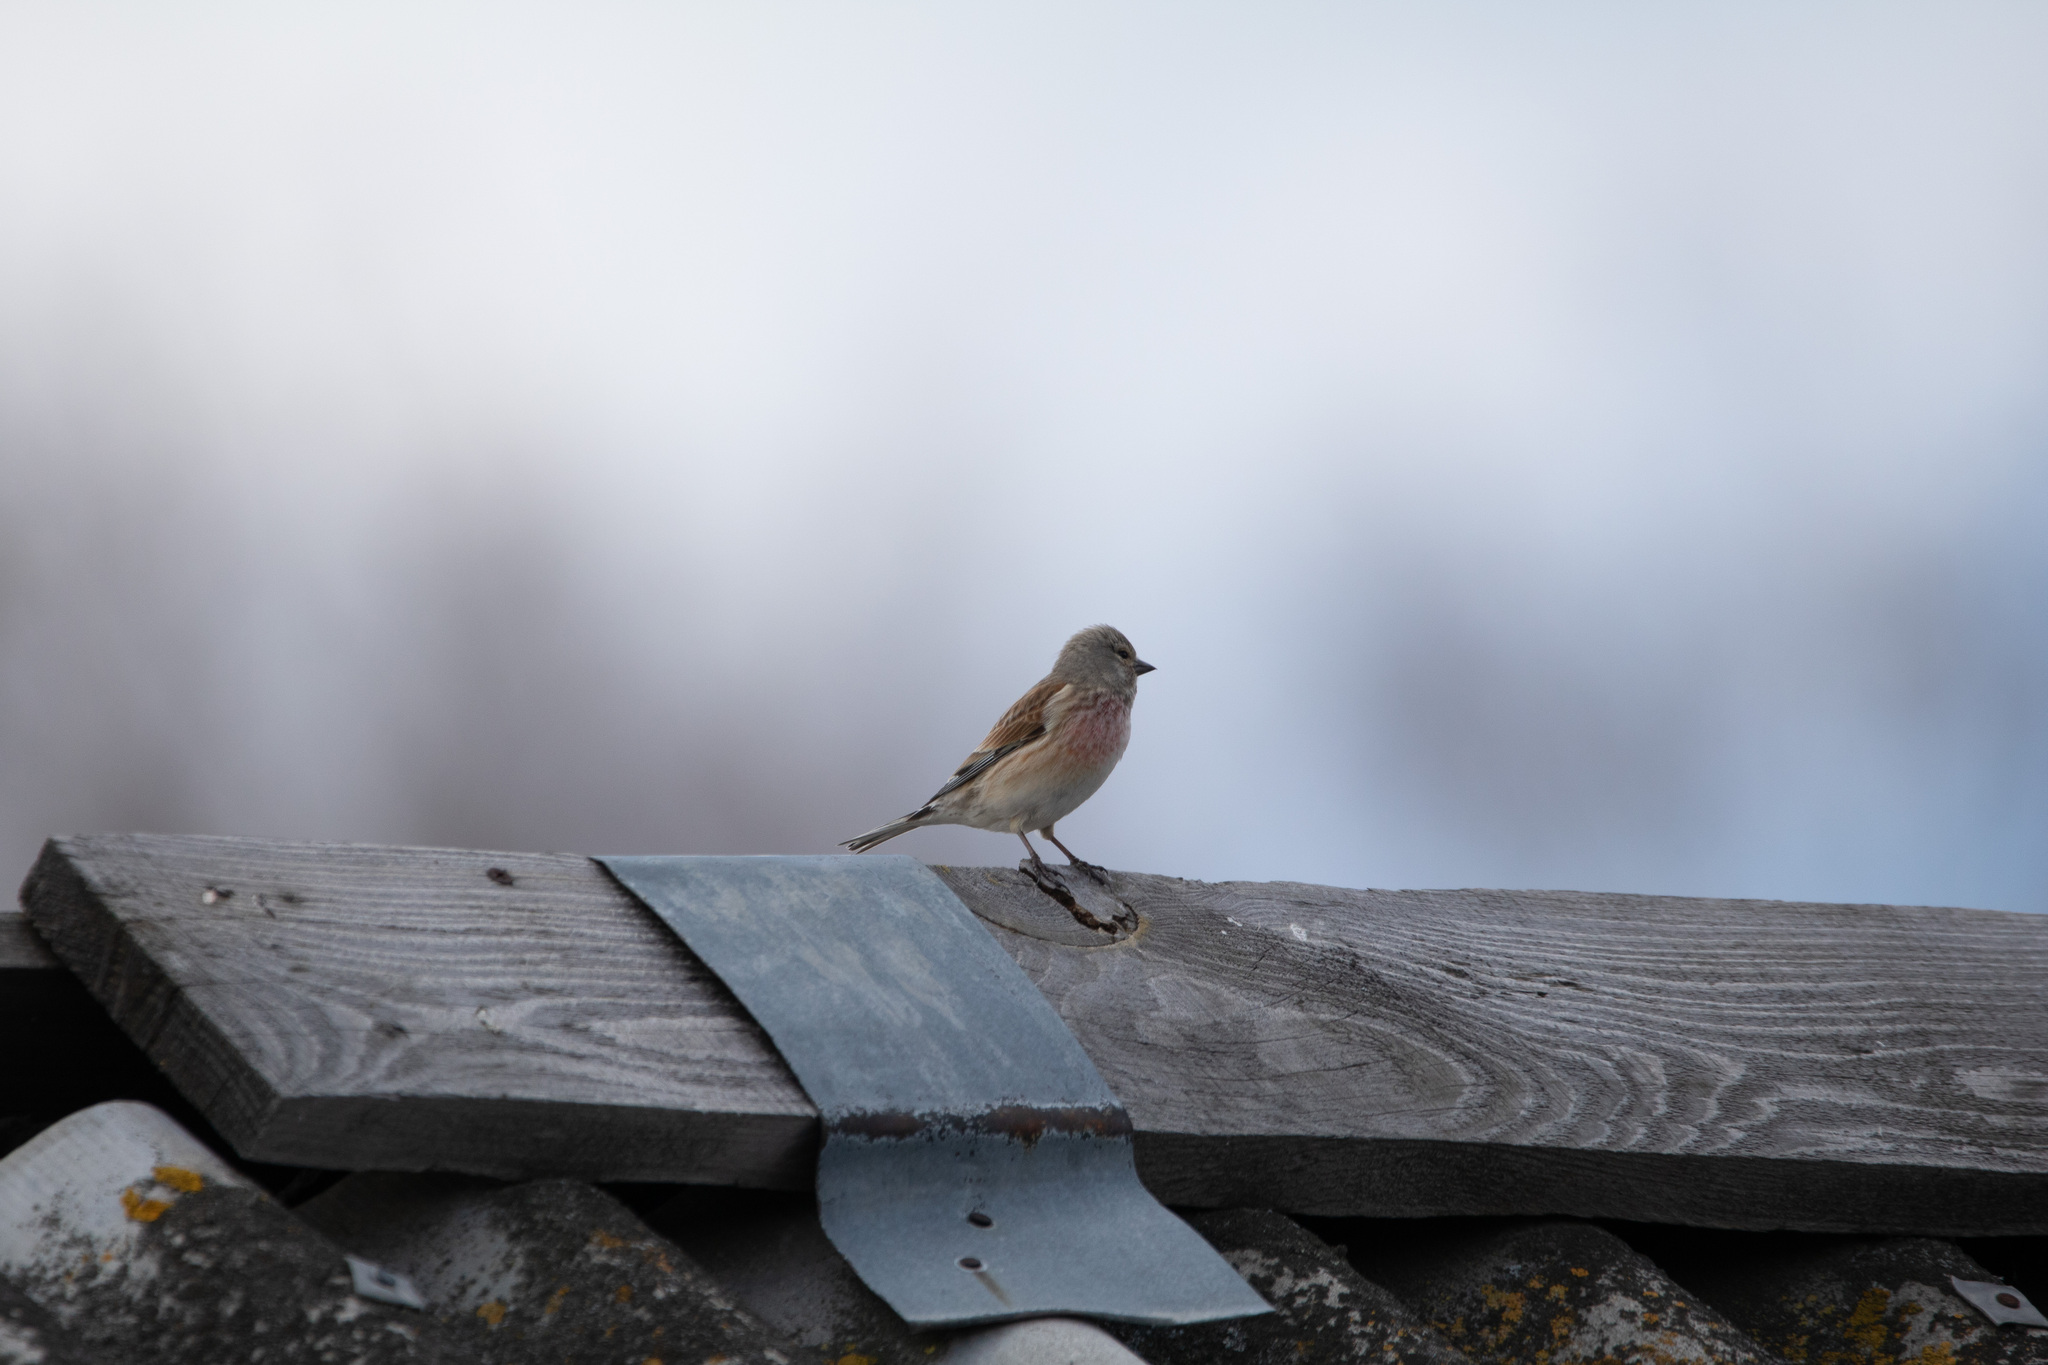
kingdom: Animalia
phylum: Chordata
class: Aves
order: Passeriformes
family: Fringillidae
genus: Linaria
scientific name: Linaria cannabina
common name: Common linnet
